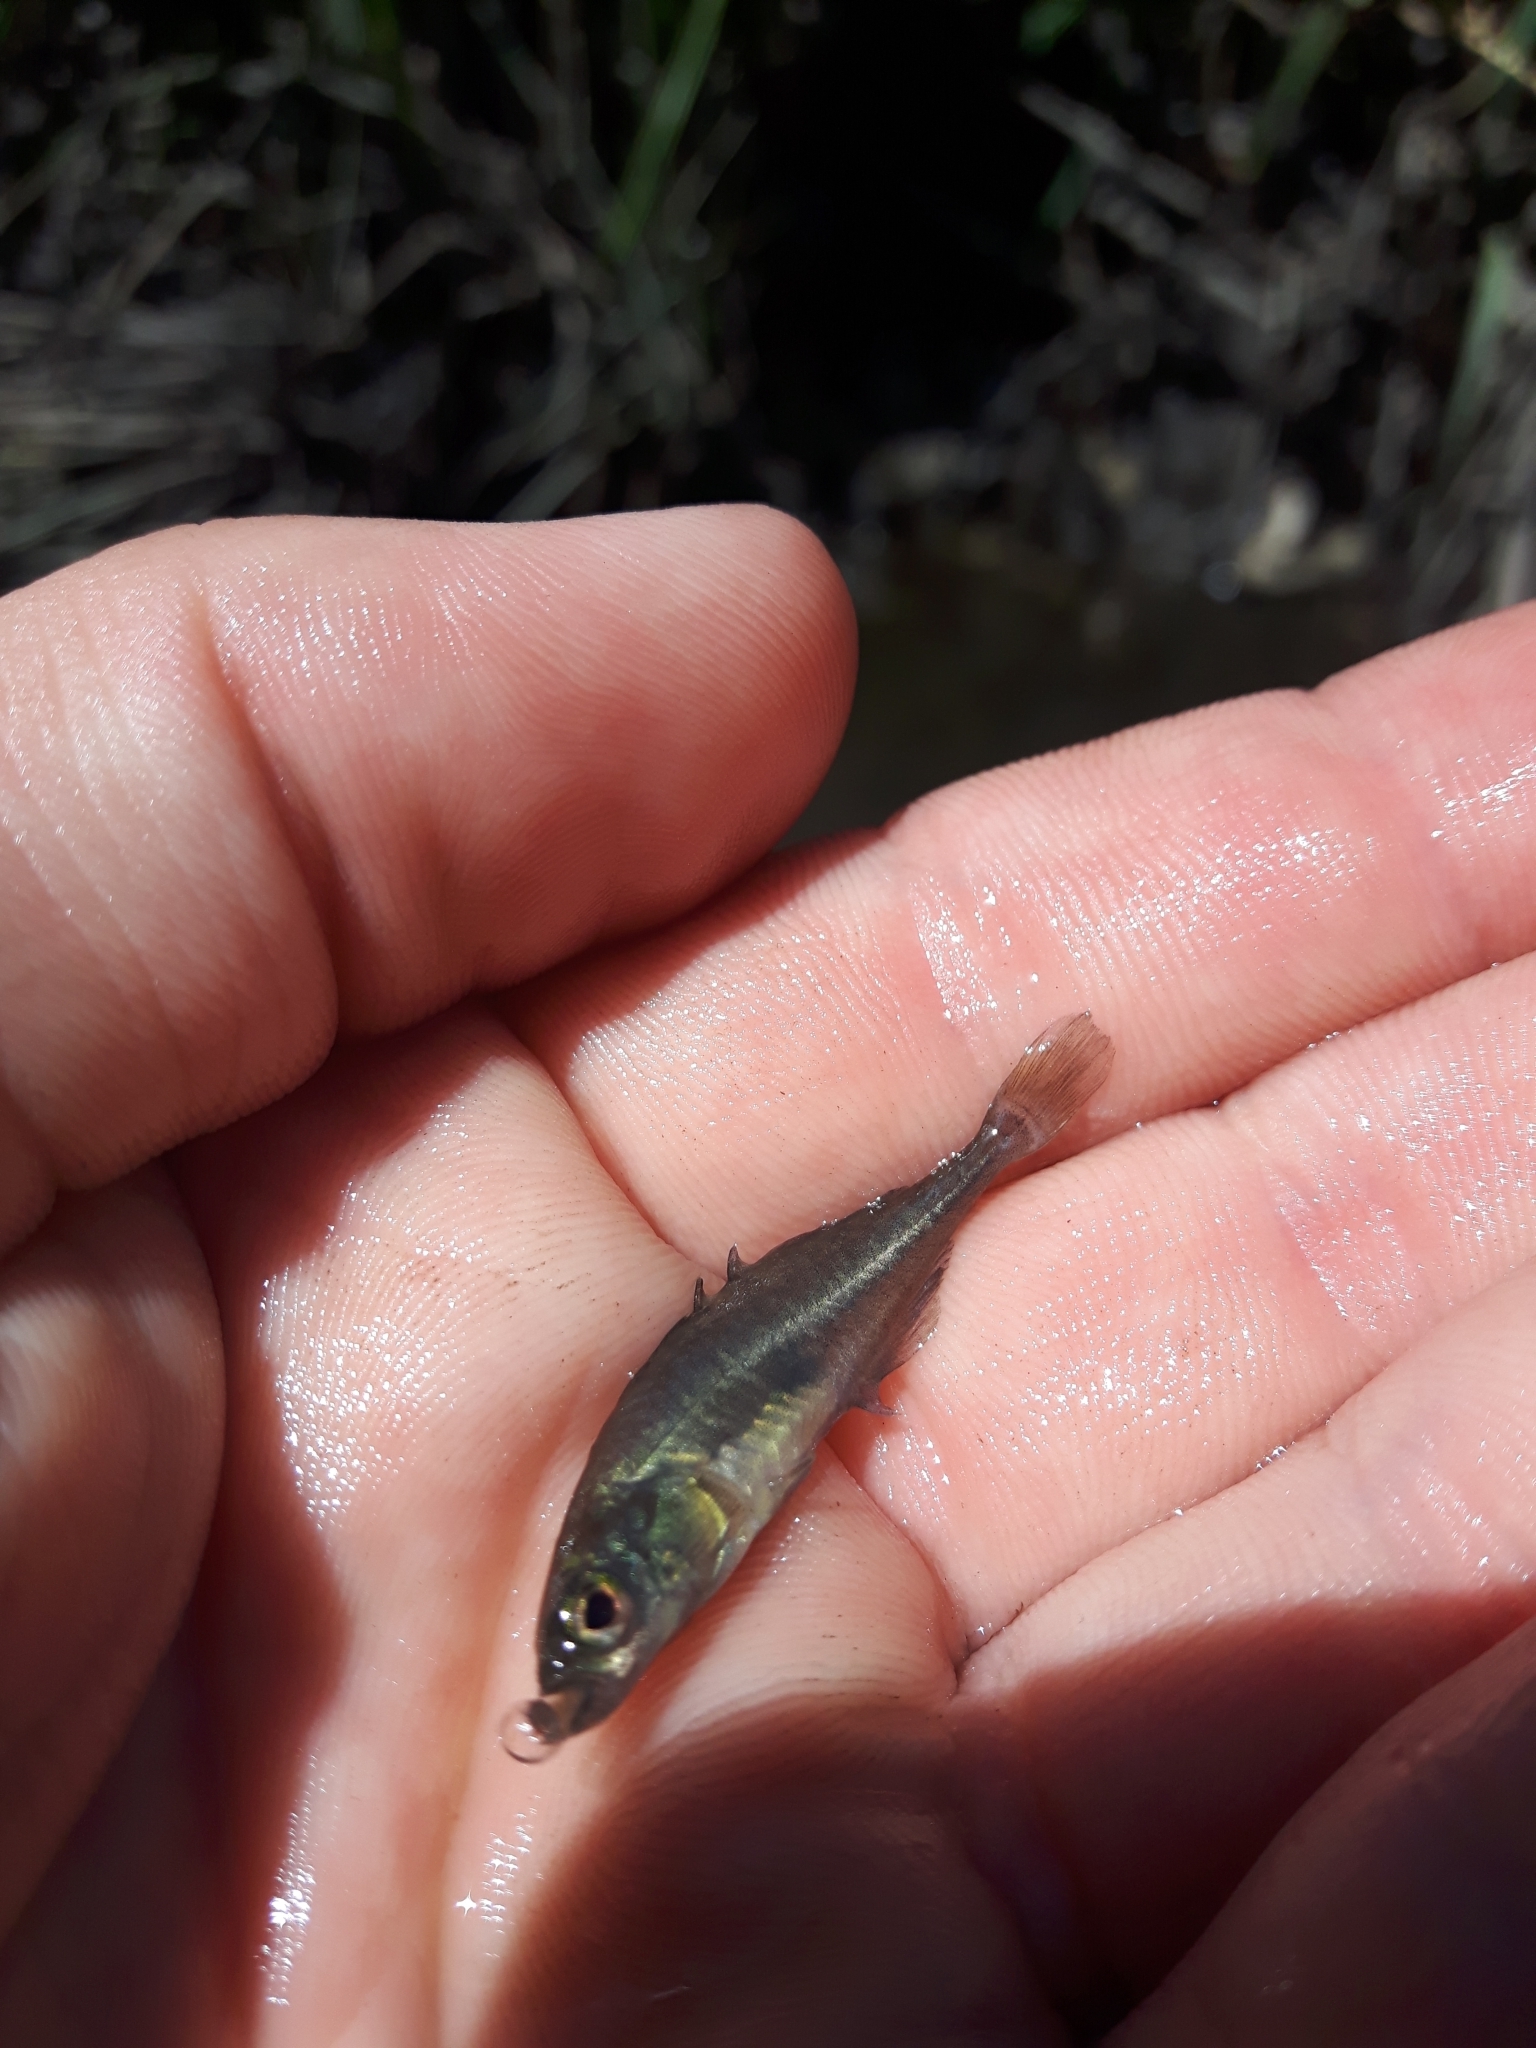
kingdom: Animalia
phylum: Chordata
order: Gasterosteiformes
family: Gasterosteidae
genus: Culaea
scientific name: Culaea inconstans
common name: Brook stickleback
